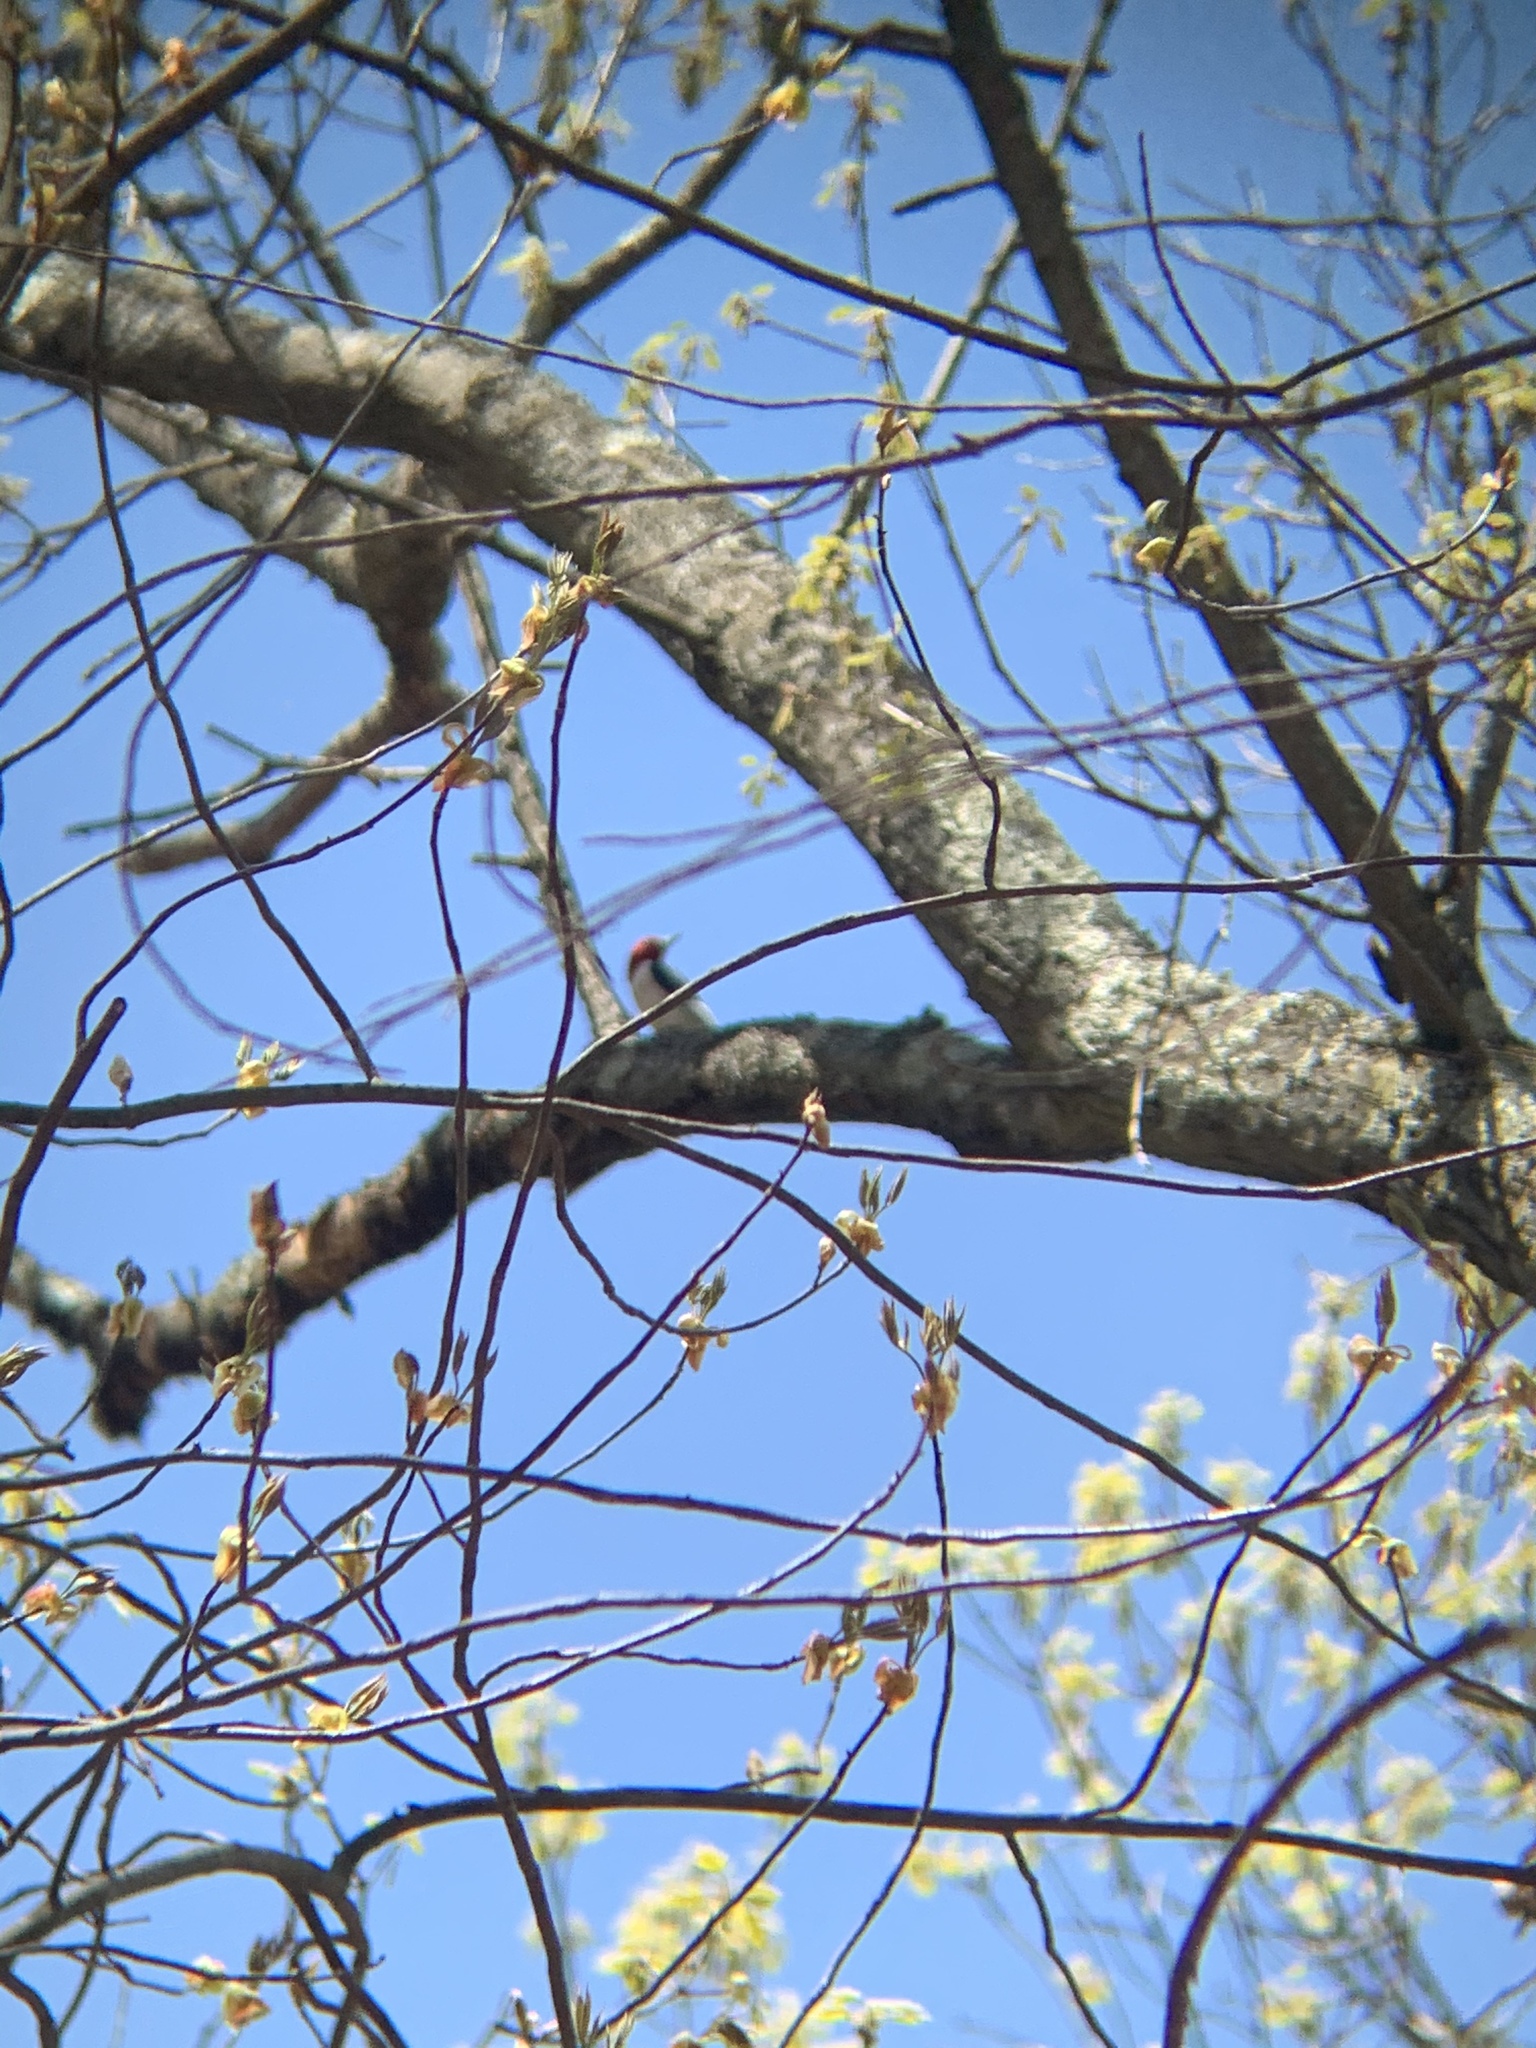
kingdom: Animalia
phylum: Chordata
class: Aves
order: Piciformes
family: Picidae
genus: Melanerpes
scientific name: Melanerpes erythrocephalus
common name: Red-headed woodpecker
